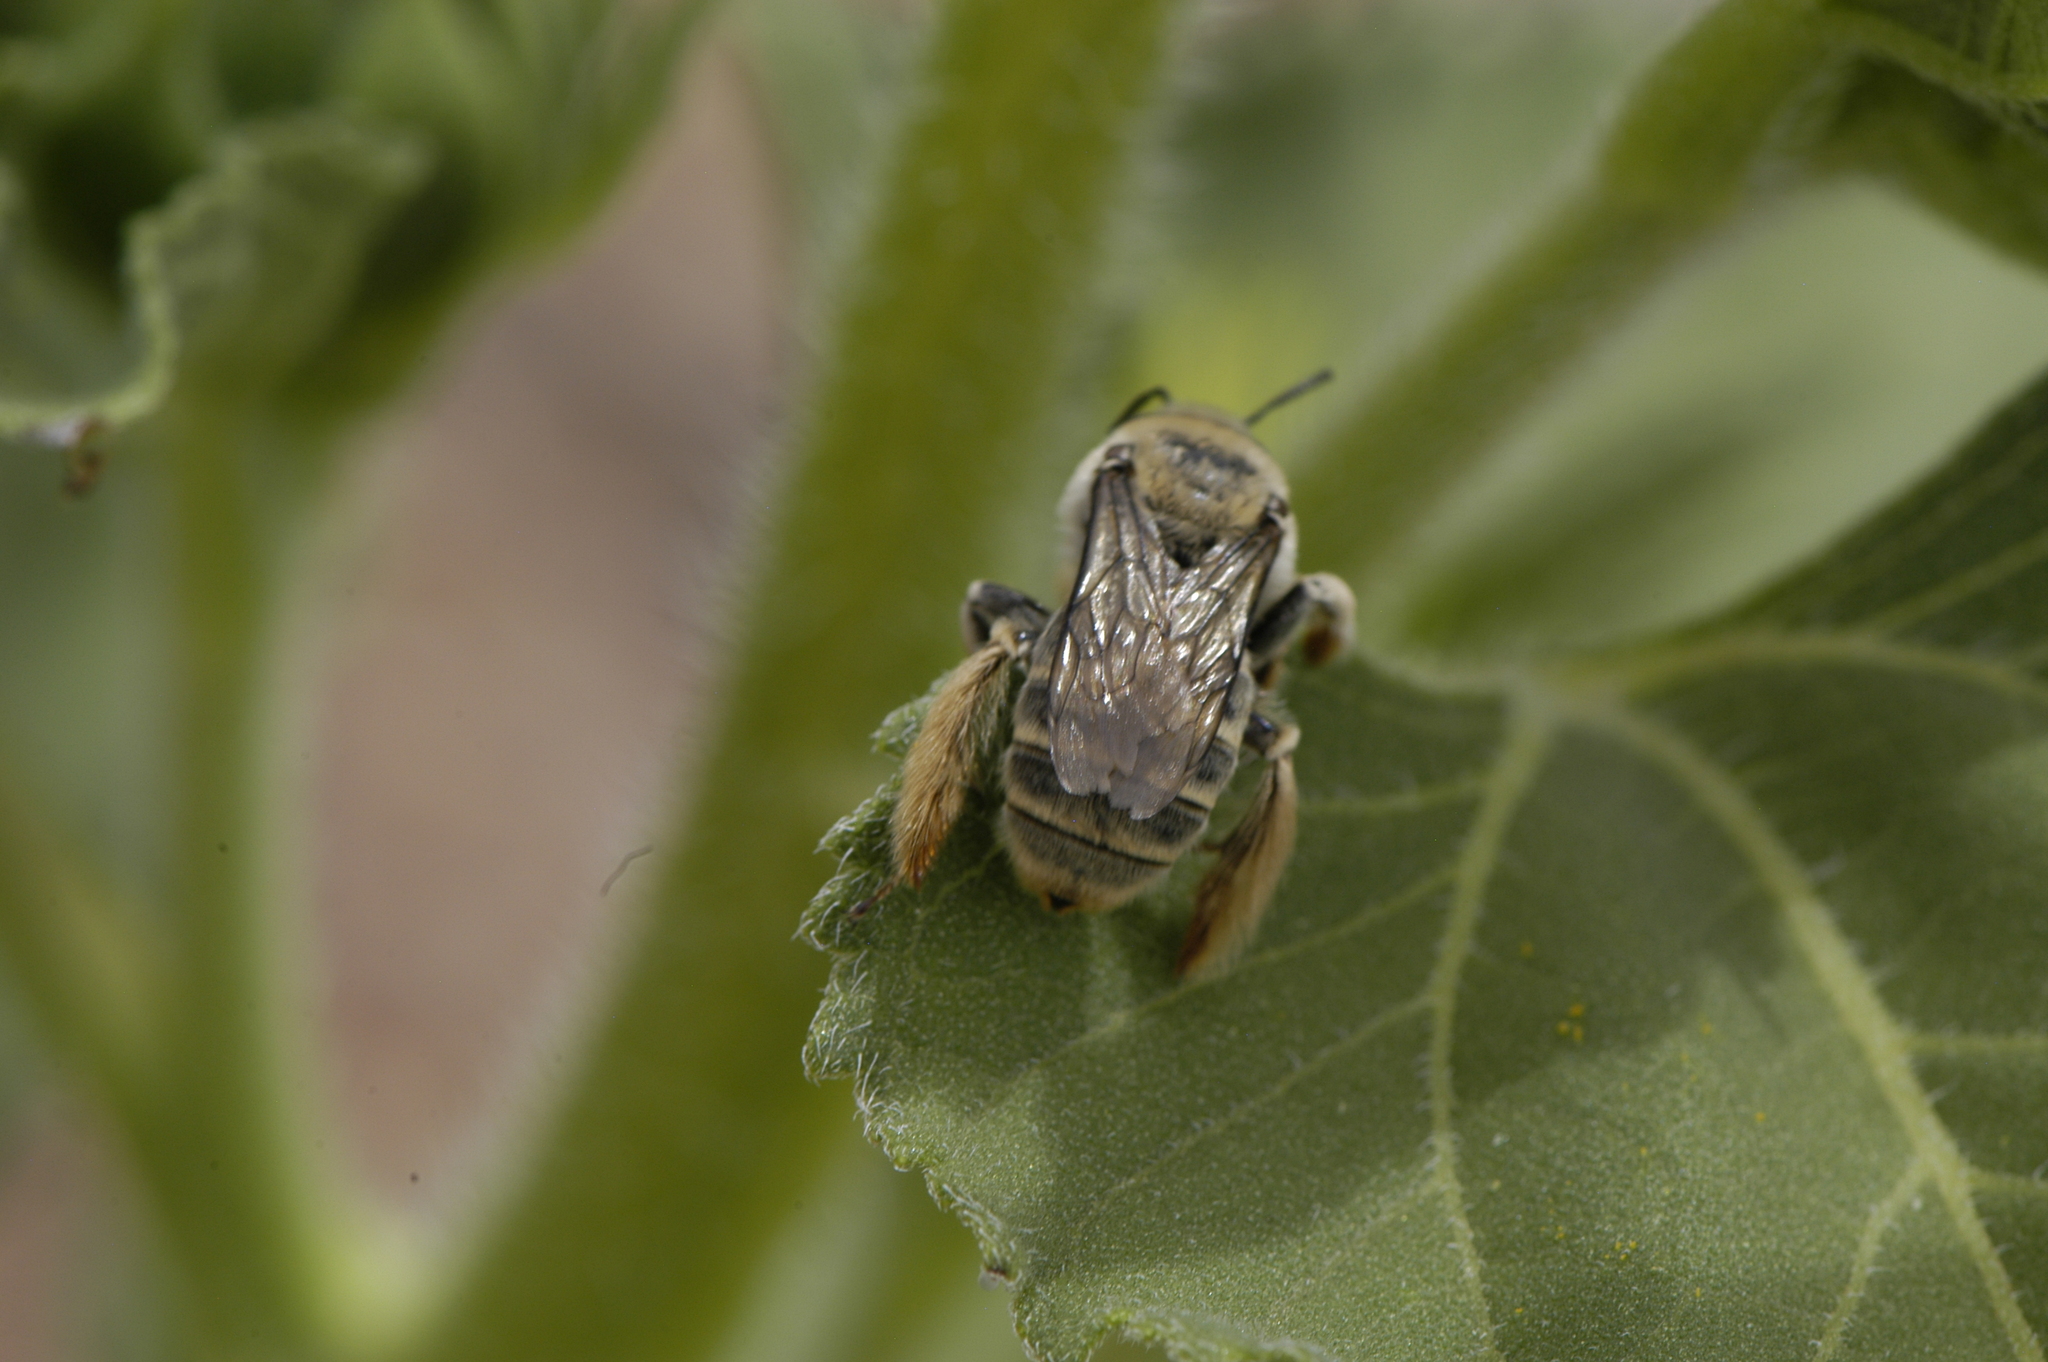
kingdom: Animalia
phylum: Arthropoda
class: Insecta
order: Hymenoptera
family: Apidae
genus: Diadasia
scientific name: Diadasia
